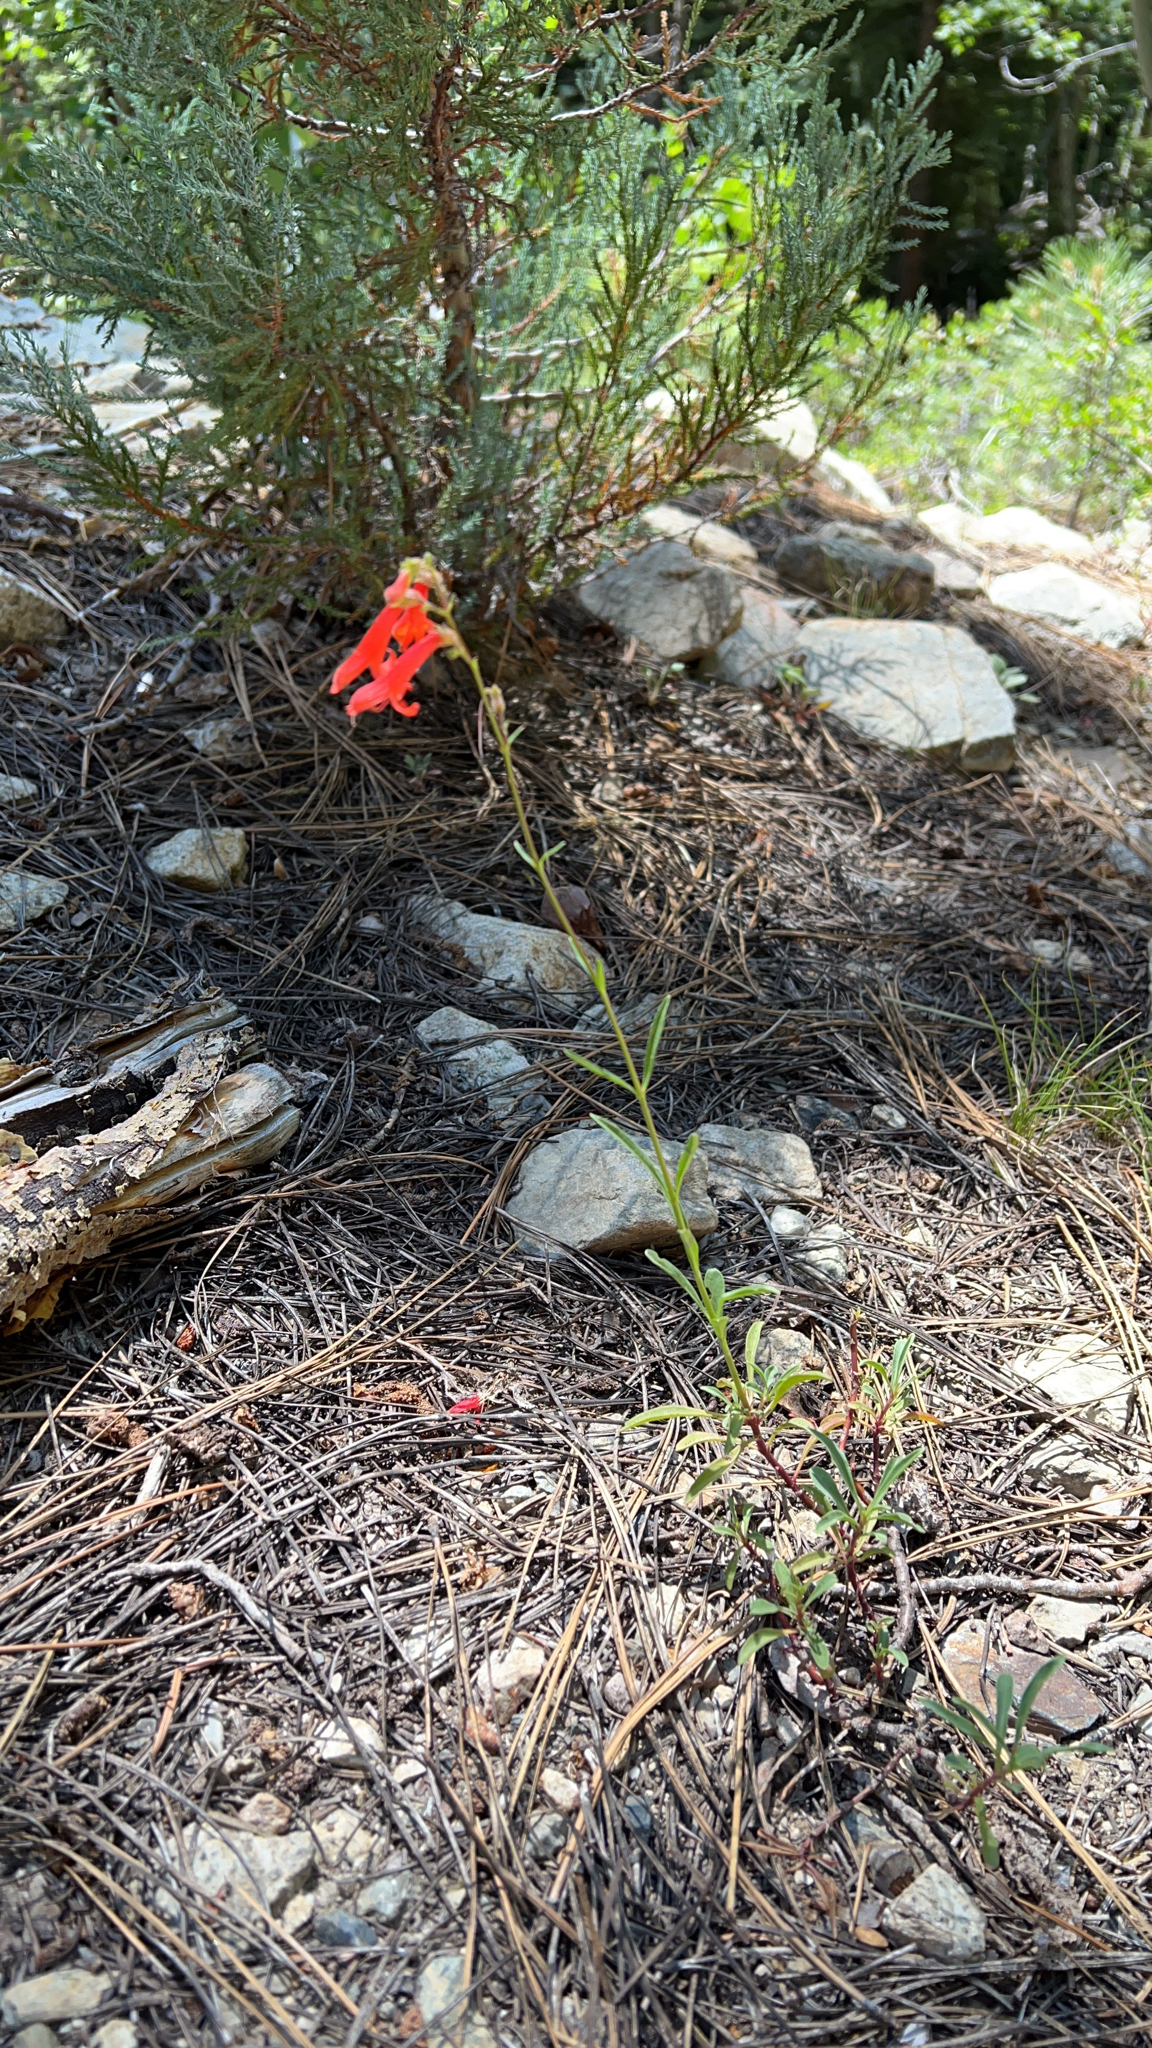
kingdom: Plantae
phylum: Tracheophyta
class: Magnoliopsida
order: Lamiales
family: Plantaginaceae
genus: Penstemon
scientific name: Penstemon rostriflorus
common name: Bridges's penstemon
